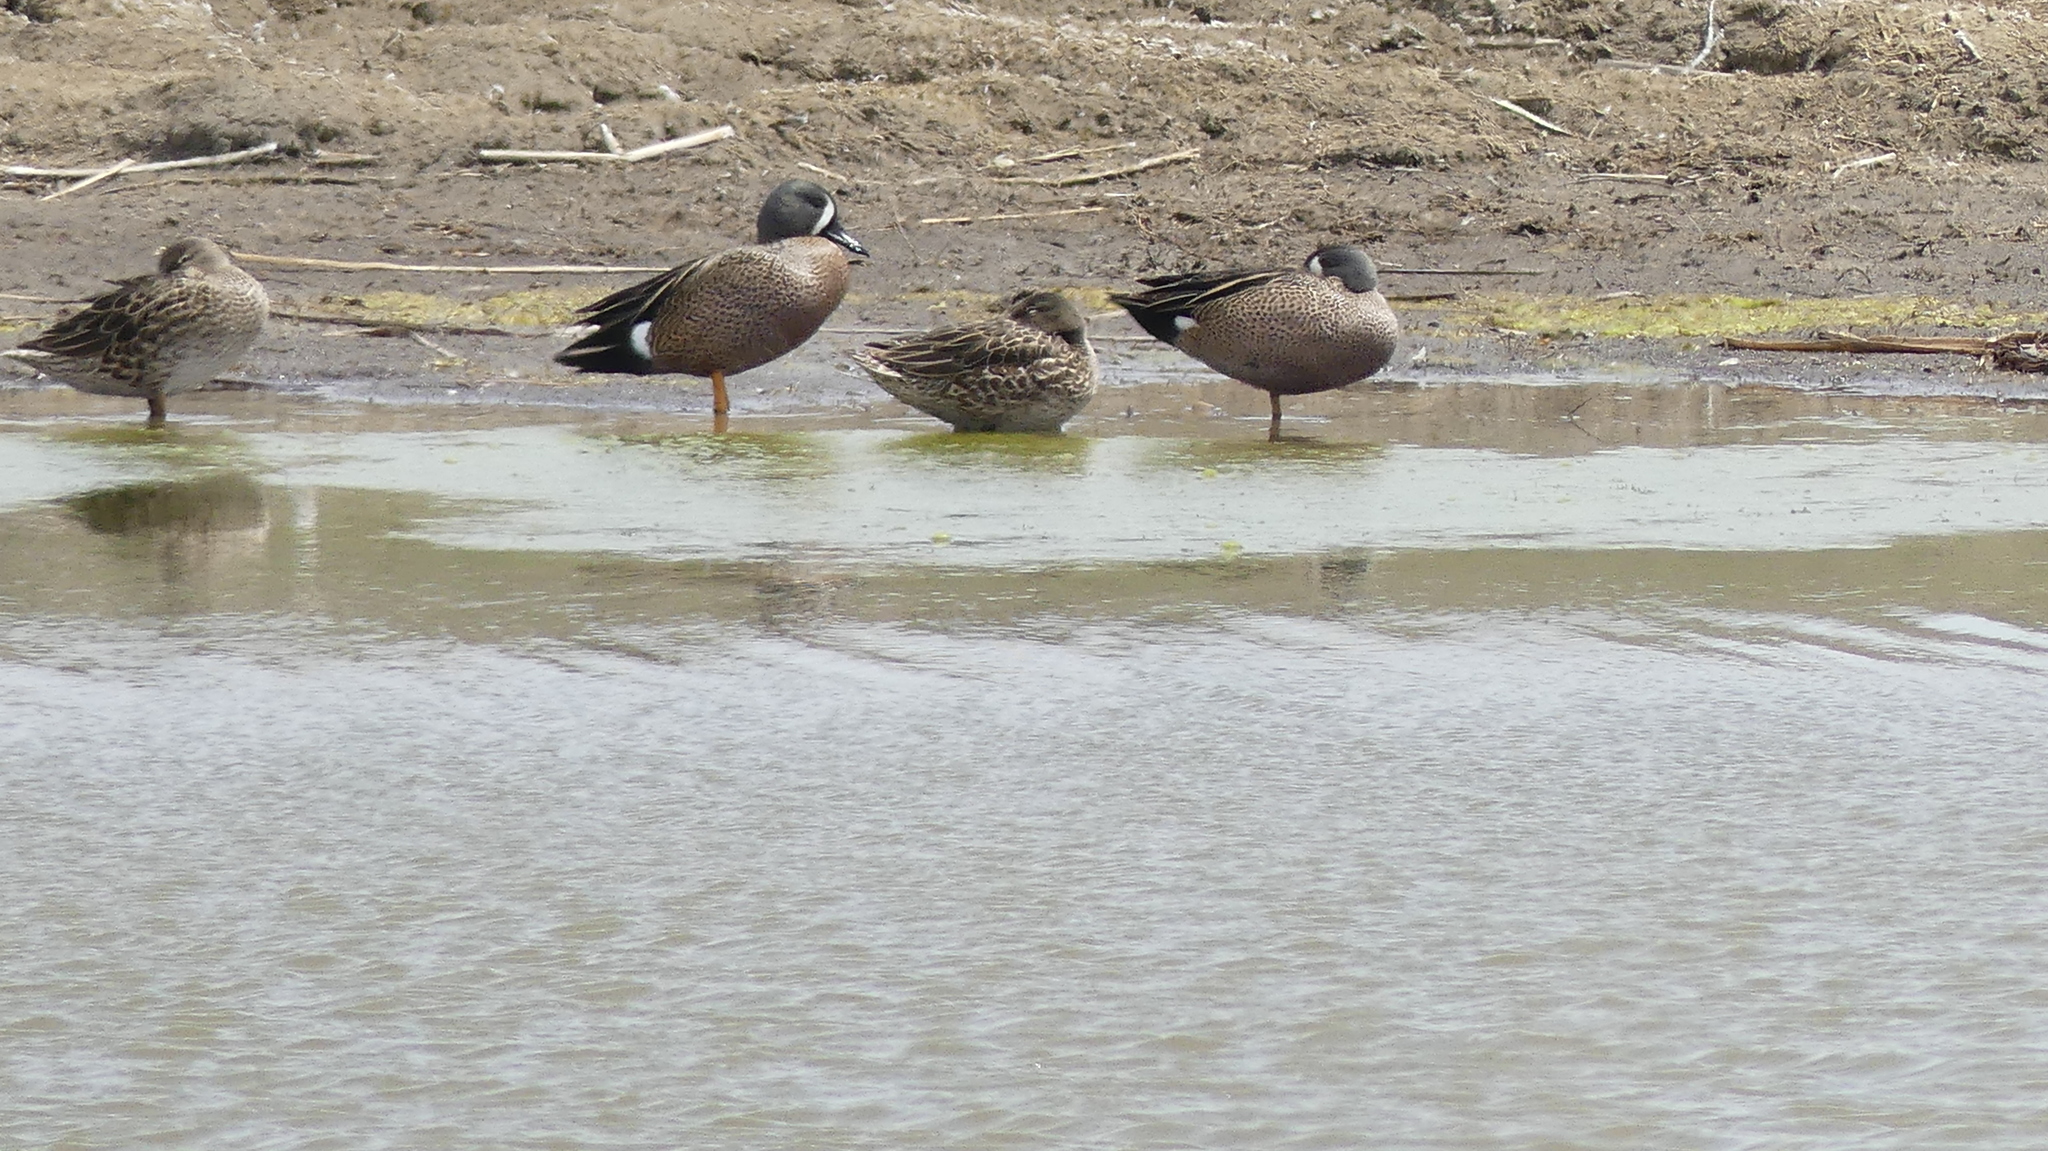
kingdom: Animalia
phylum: Chordata
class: Aves
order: Anseriformes
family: Anatidae
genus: Spatula
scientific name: Spatula discors
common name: Blue-winged teal
